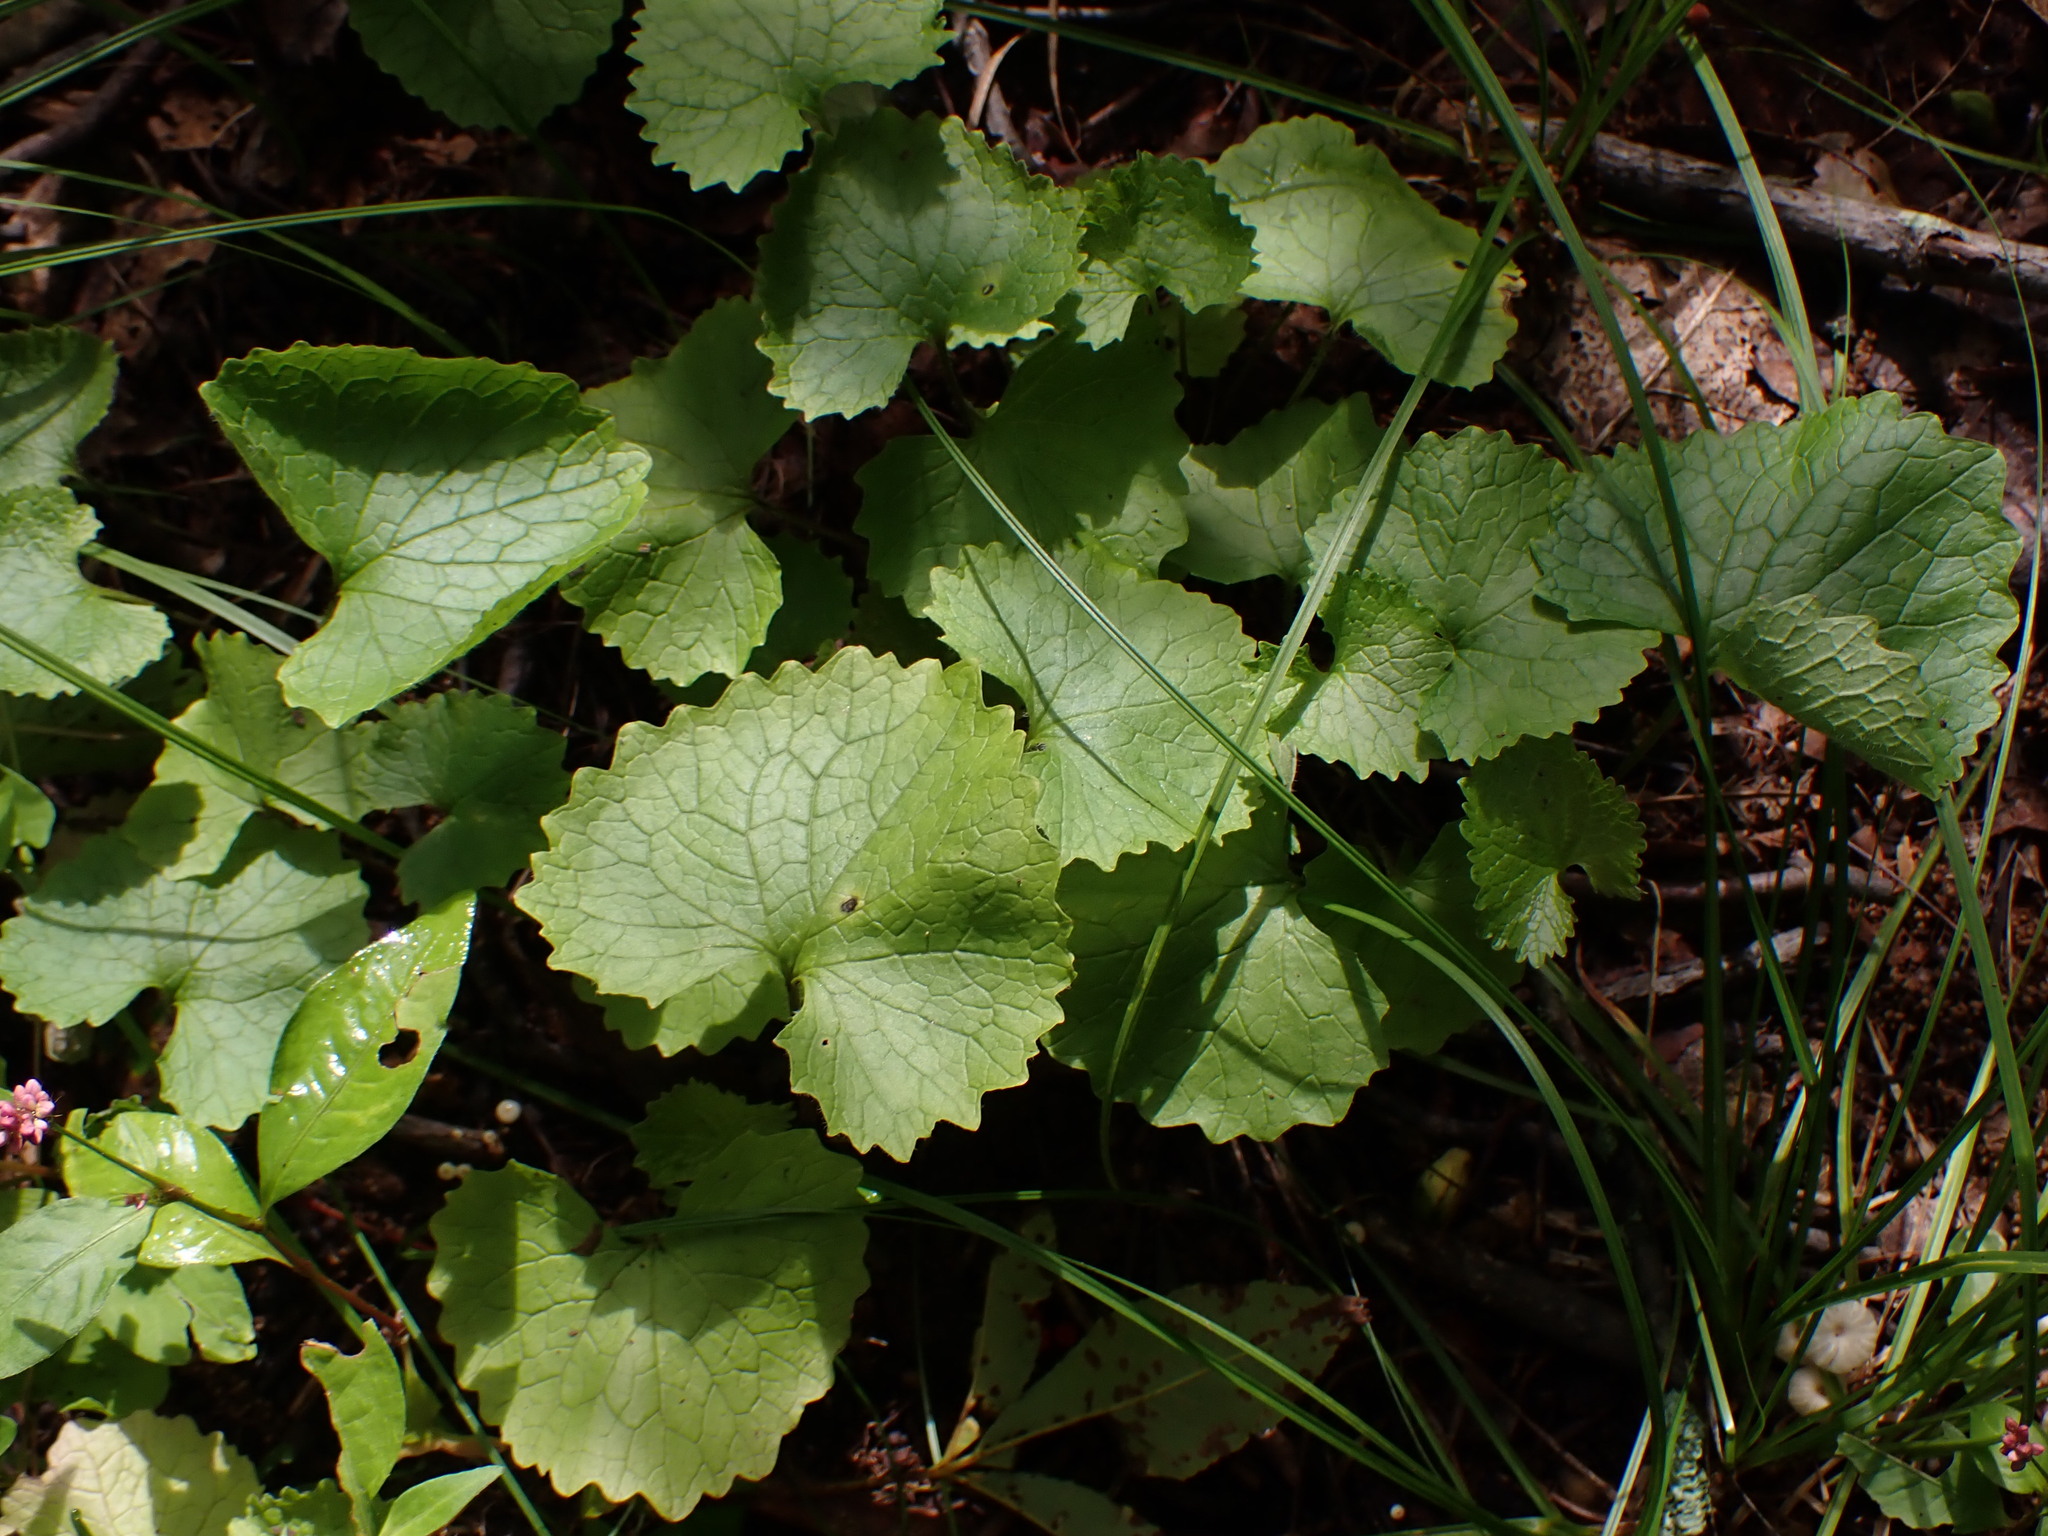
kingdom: Plantae
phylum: Tracheophyta
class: Magnoliopsida
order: Brassicales
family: Brassicaceae
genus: Alliaria
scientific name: Alliaria petiolata
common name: Garlic mustard
